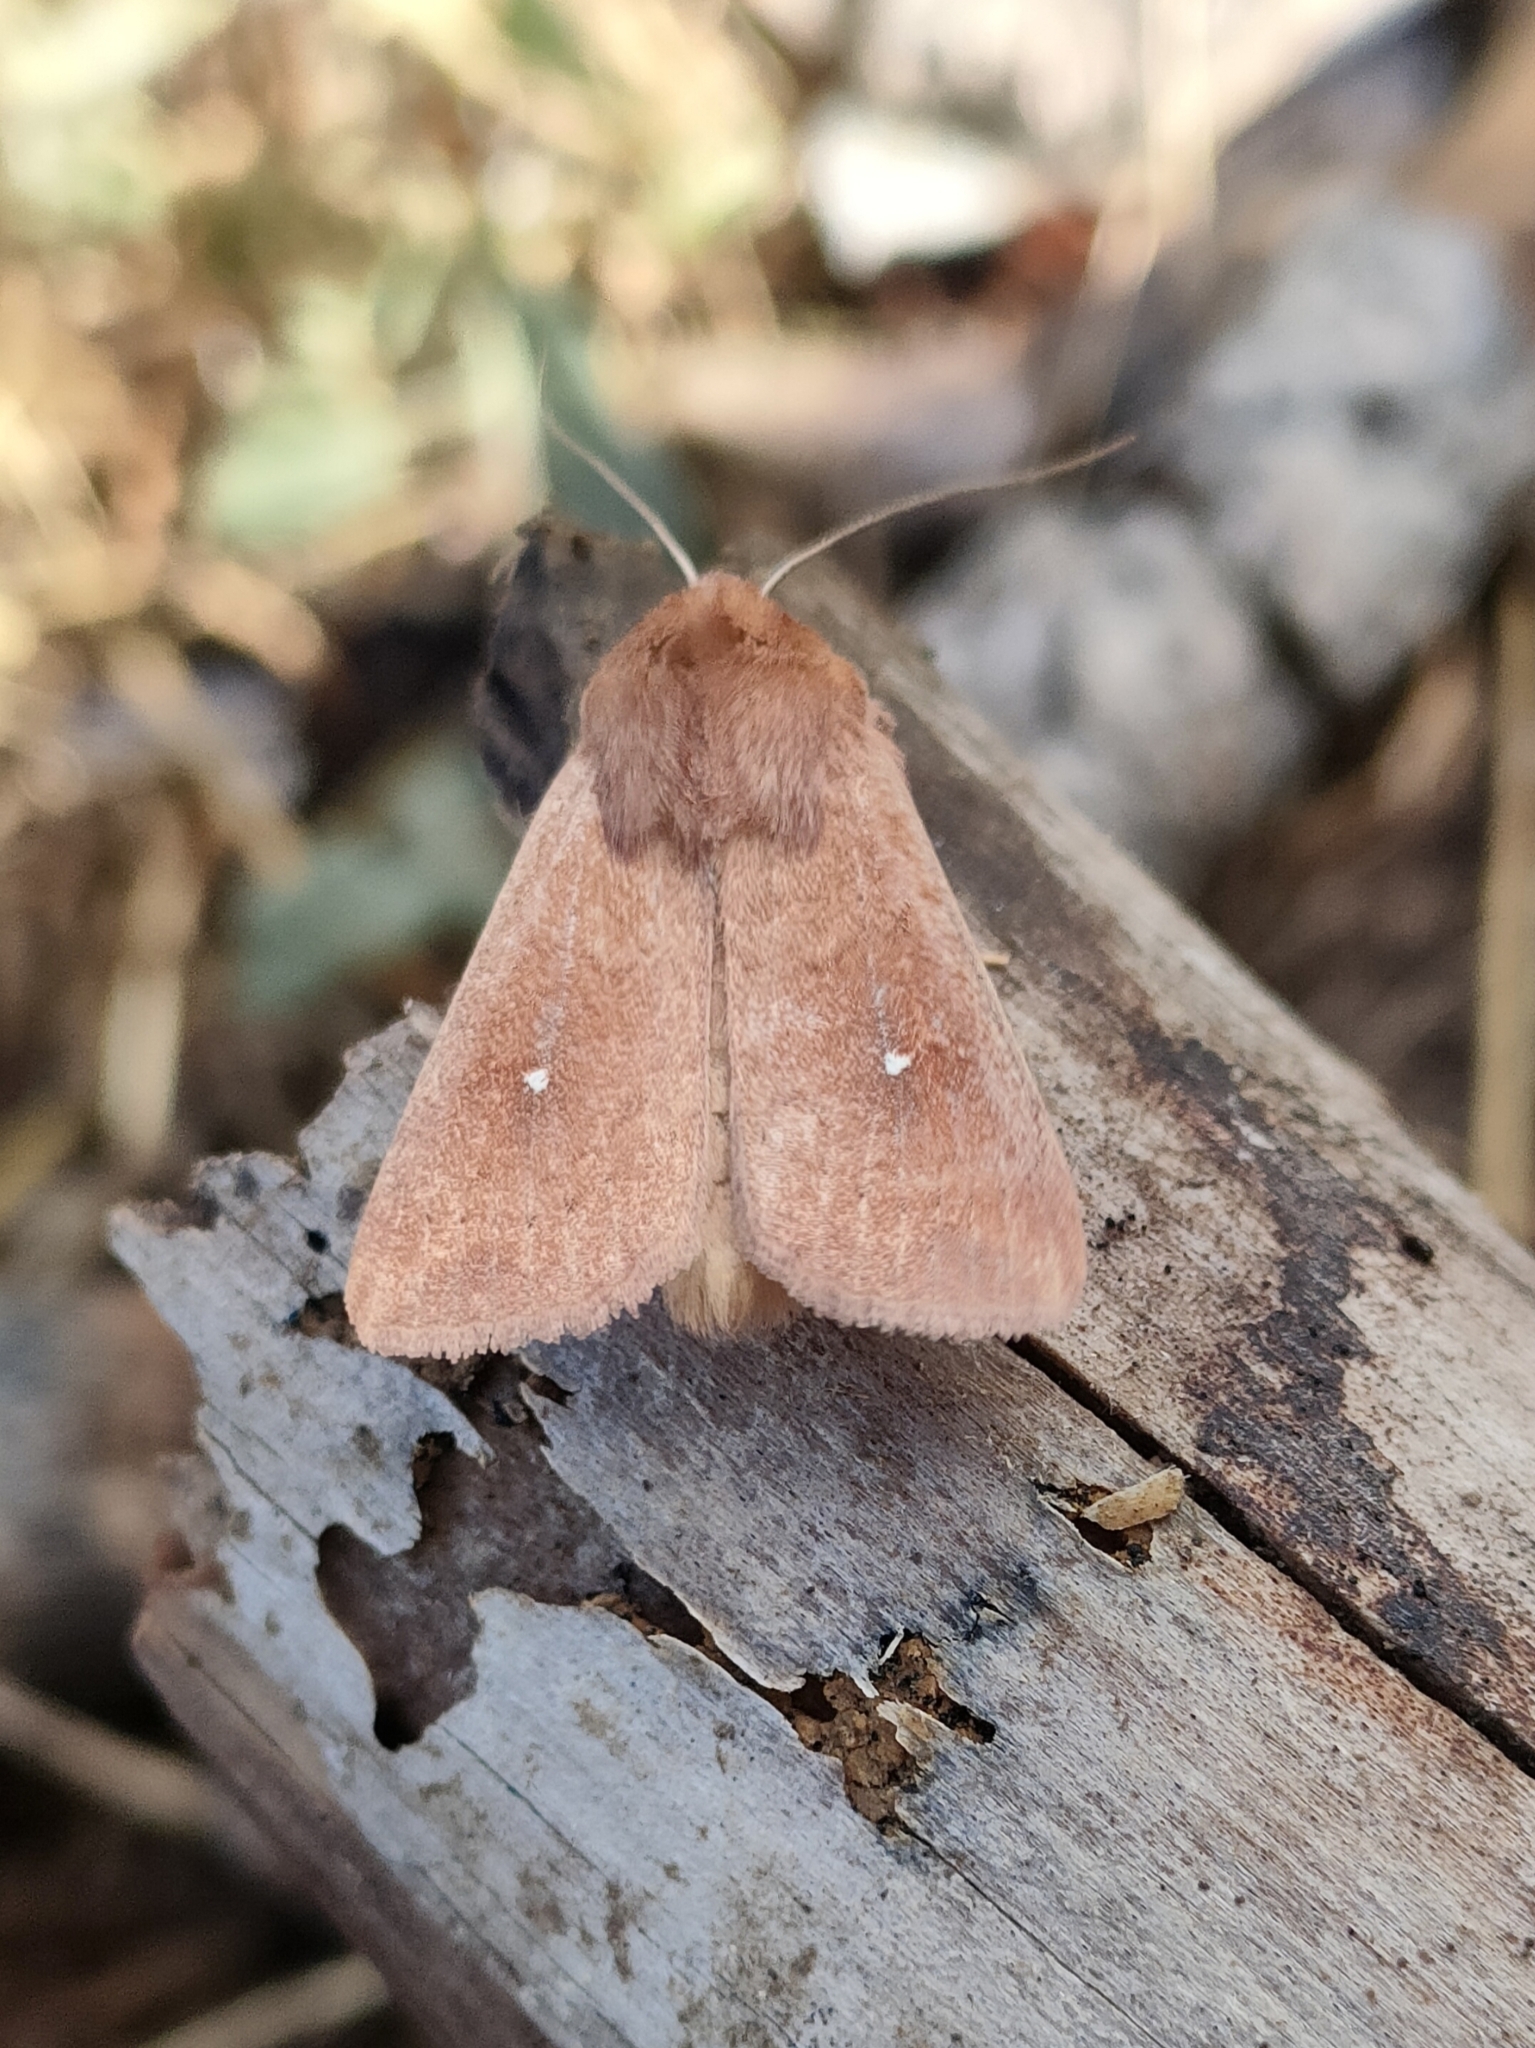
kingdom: Animalia
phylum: Arthropoda
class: Insecta
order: Lepidoptera
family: Noctuidae
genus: Mythimna
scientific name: Mythimna albipuncta
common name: White-point
